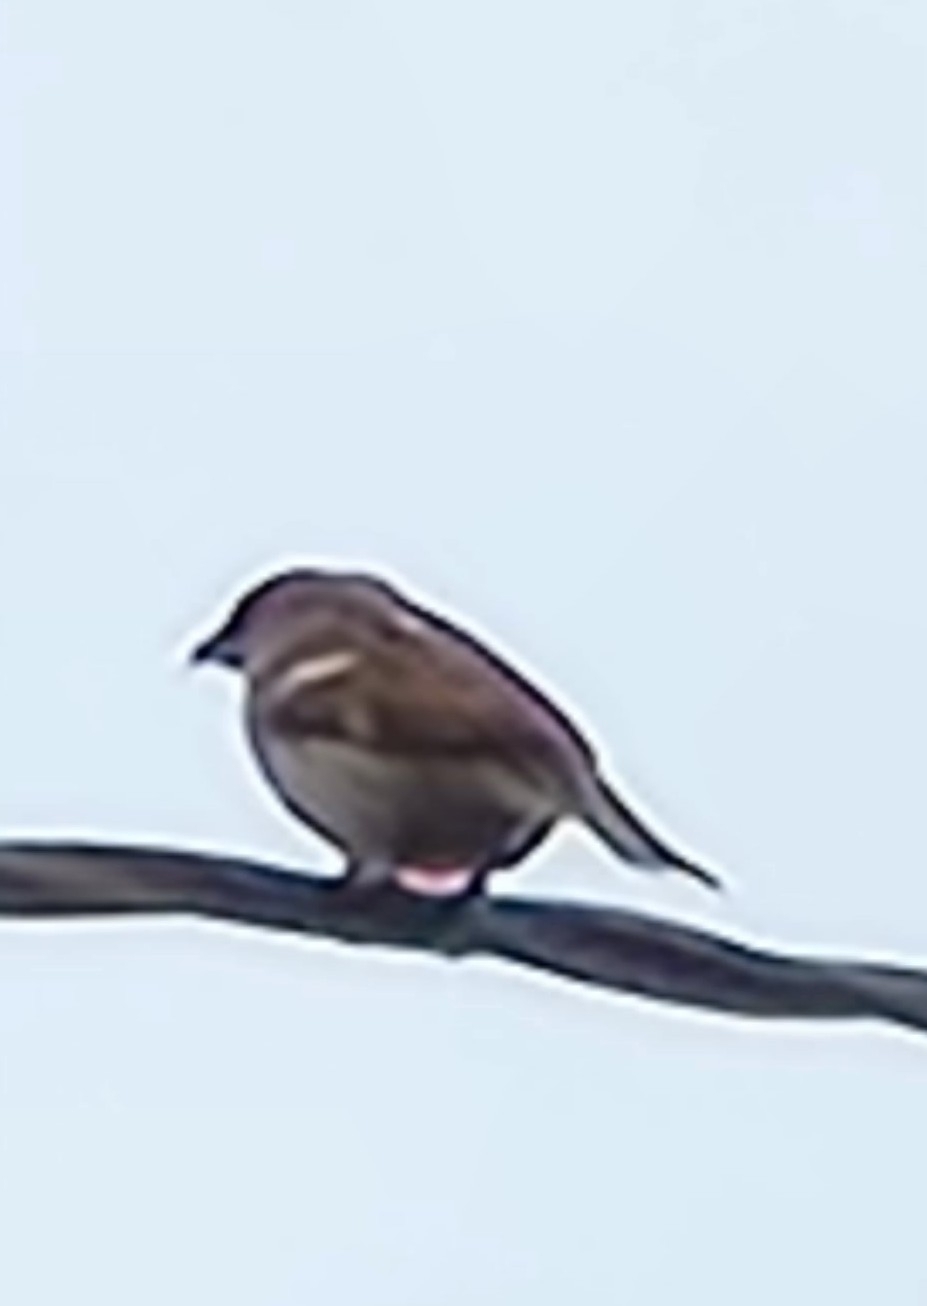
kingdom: Animalia
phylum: Chordata
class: Aves
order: Passeriformes
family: Passeridae
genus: Passer
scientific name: Passer domesticus
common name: House sparrow
